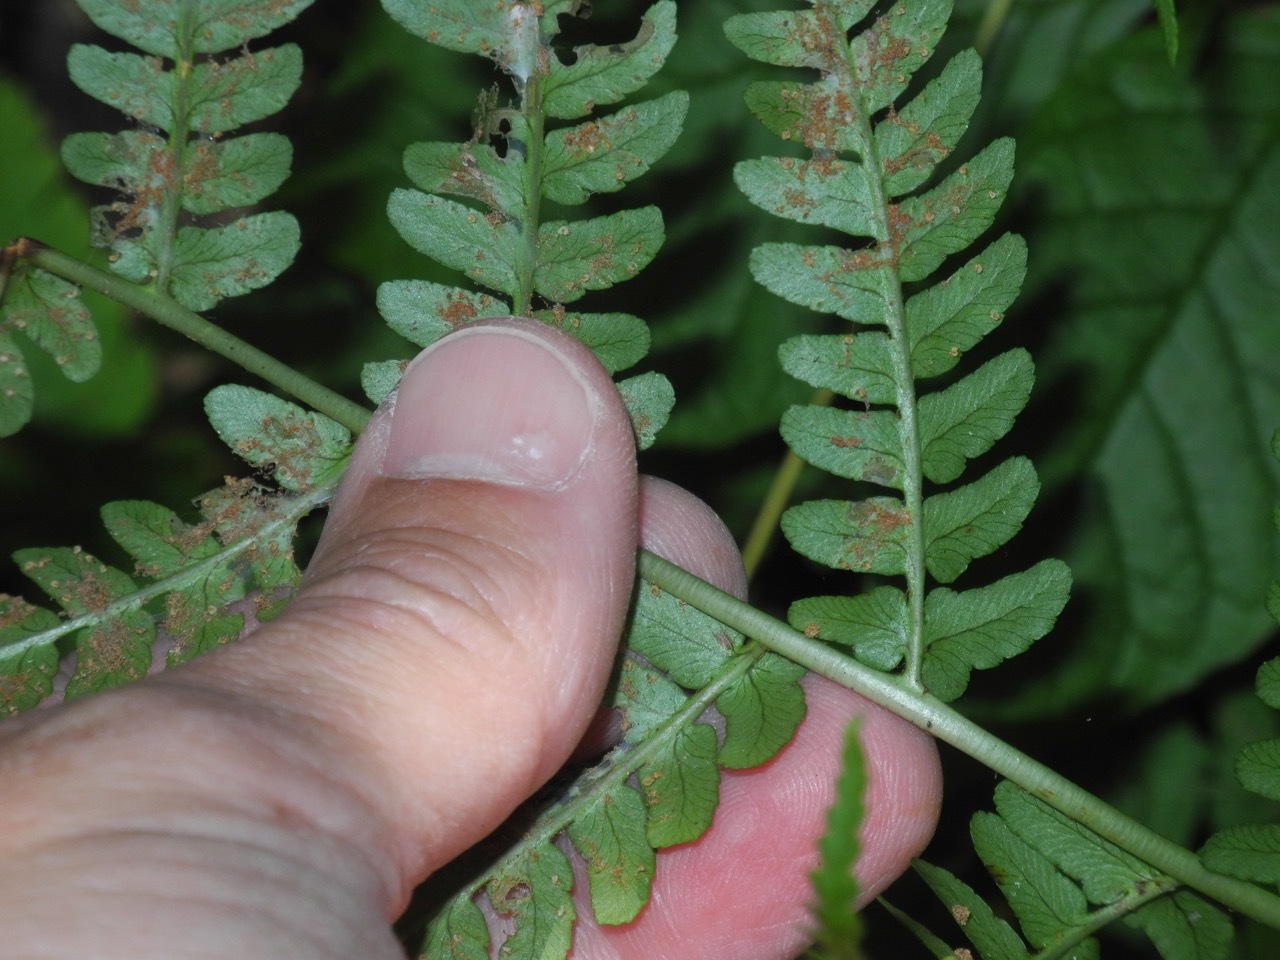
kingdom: Plantae
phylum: Tracheophyta
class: Polypodiopsida
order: Polypodiales
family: Dryopteridaceae
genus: Dryopteris
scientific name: Dryopteris marginalis
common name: Marginal wood fern
